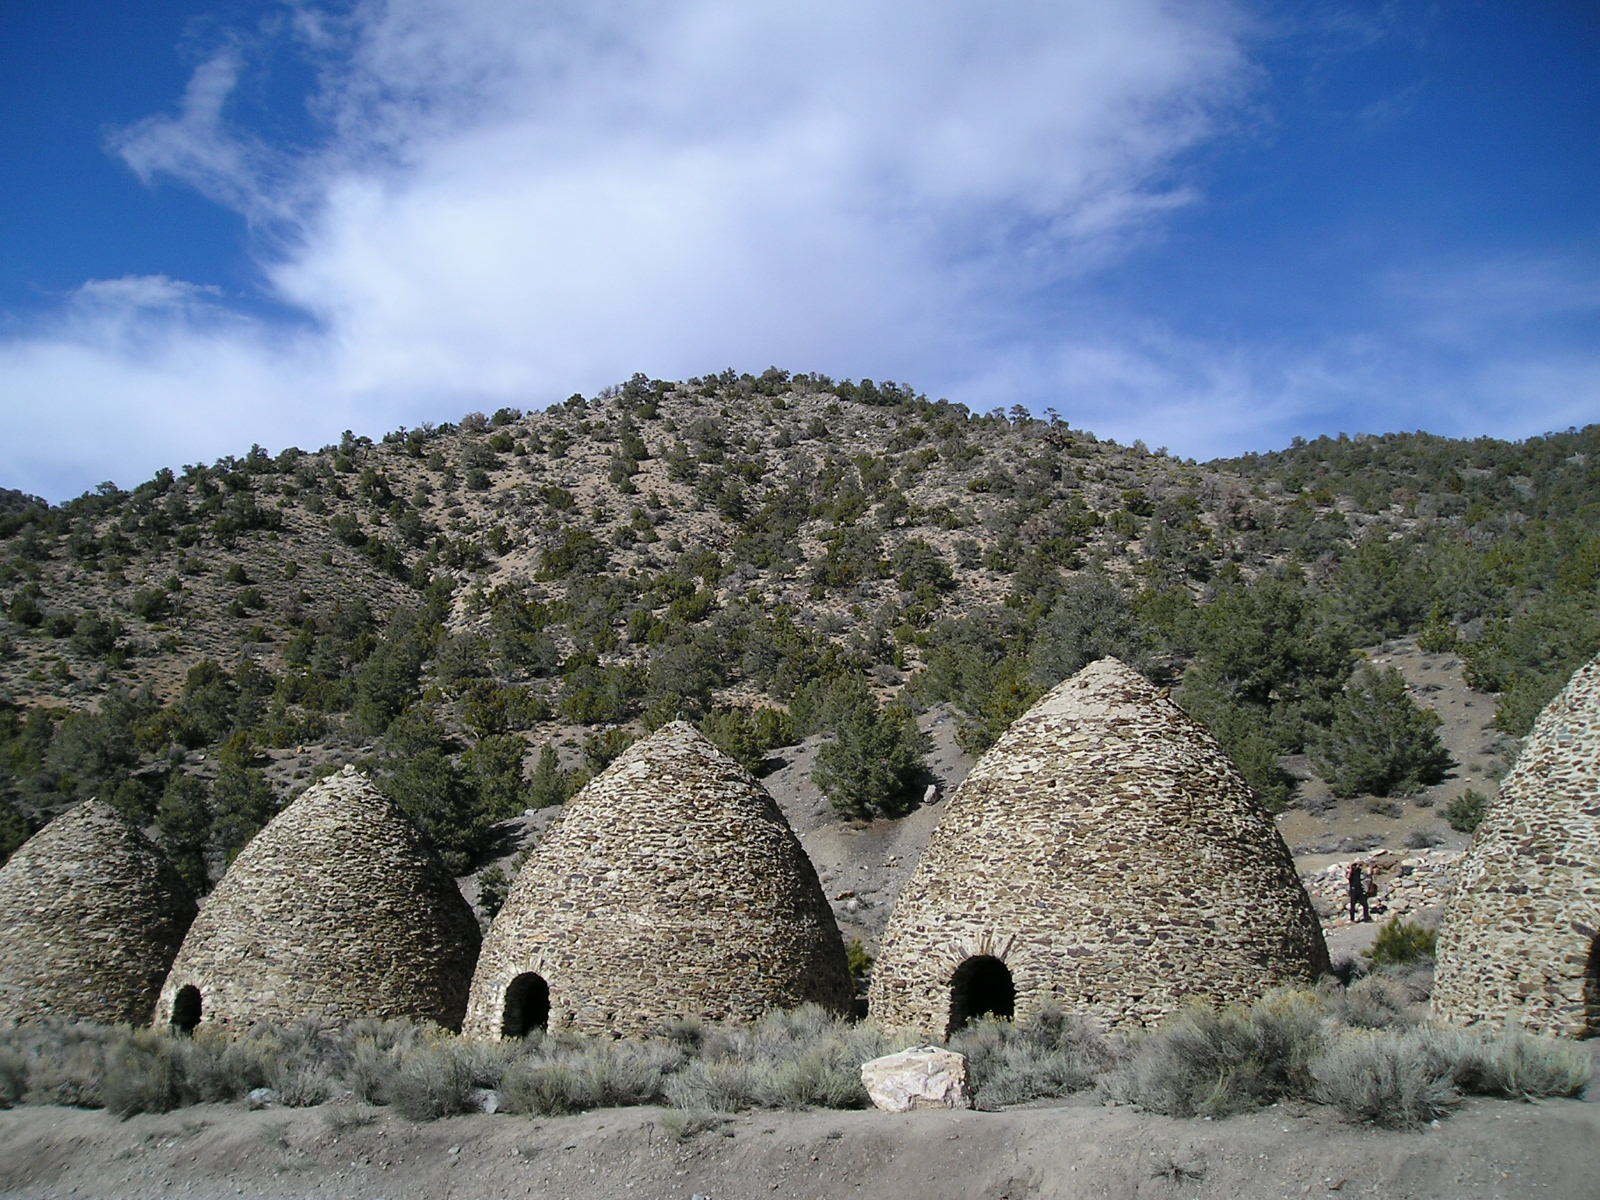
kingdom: Plantae
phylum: Tracheophyta
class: Pinopsida
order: Pinales
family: Pinaceae
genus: Pinus
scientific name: Pinus monophylla
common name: One-leaved nut pine
